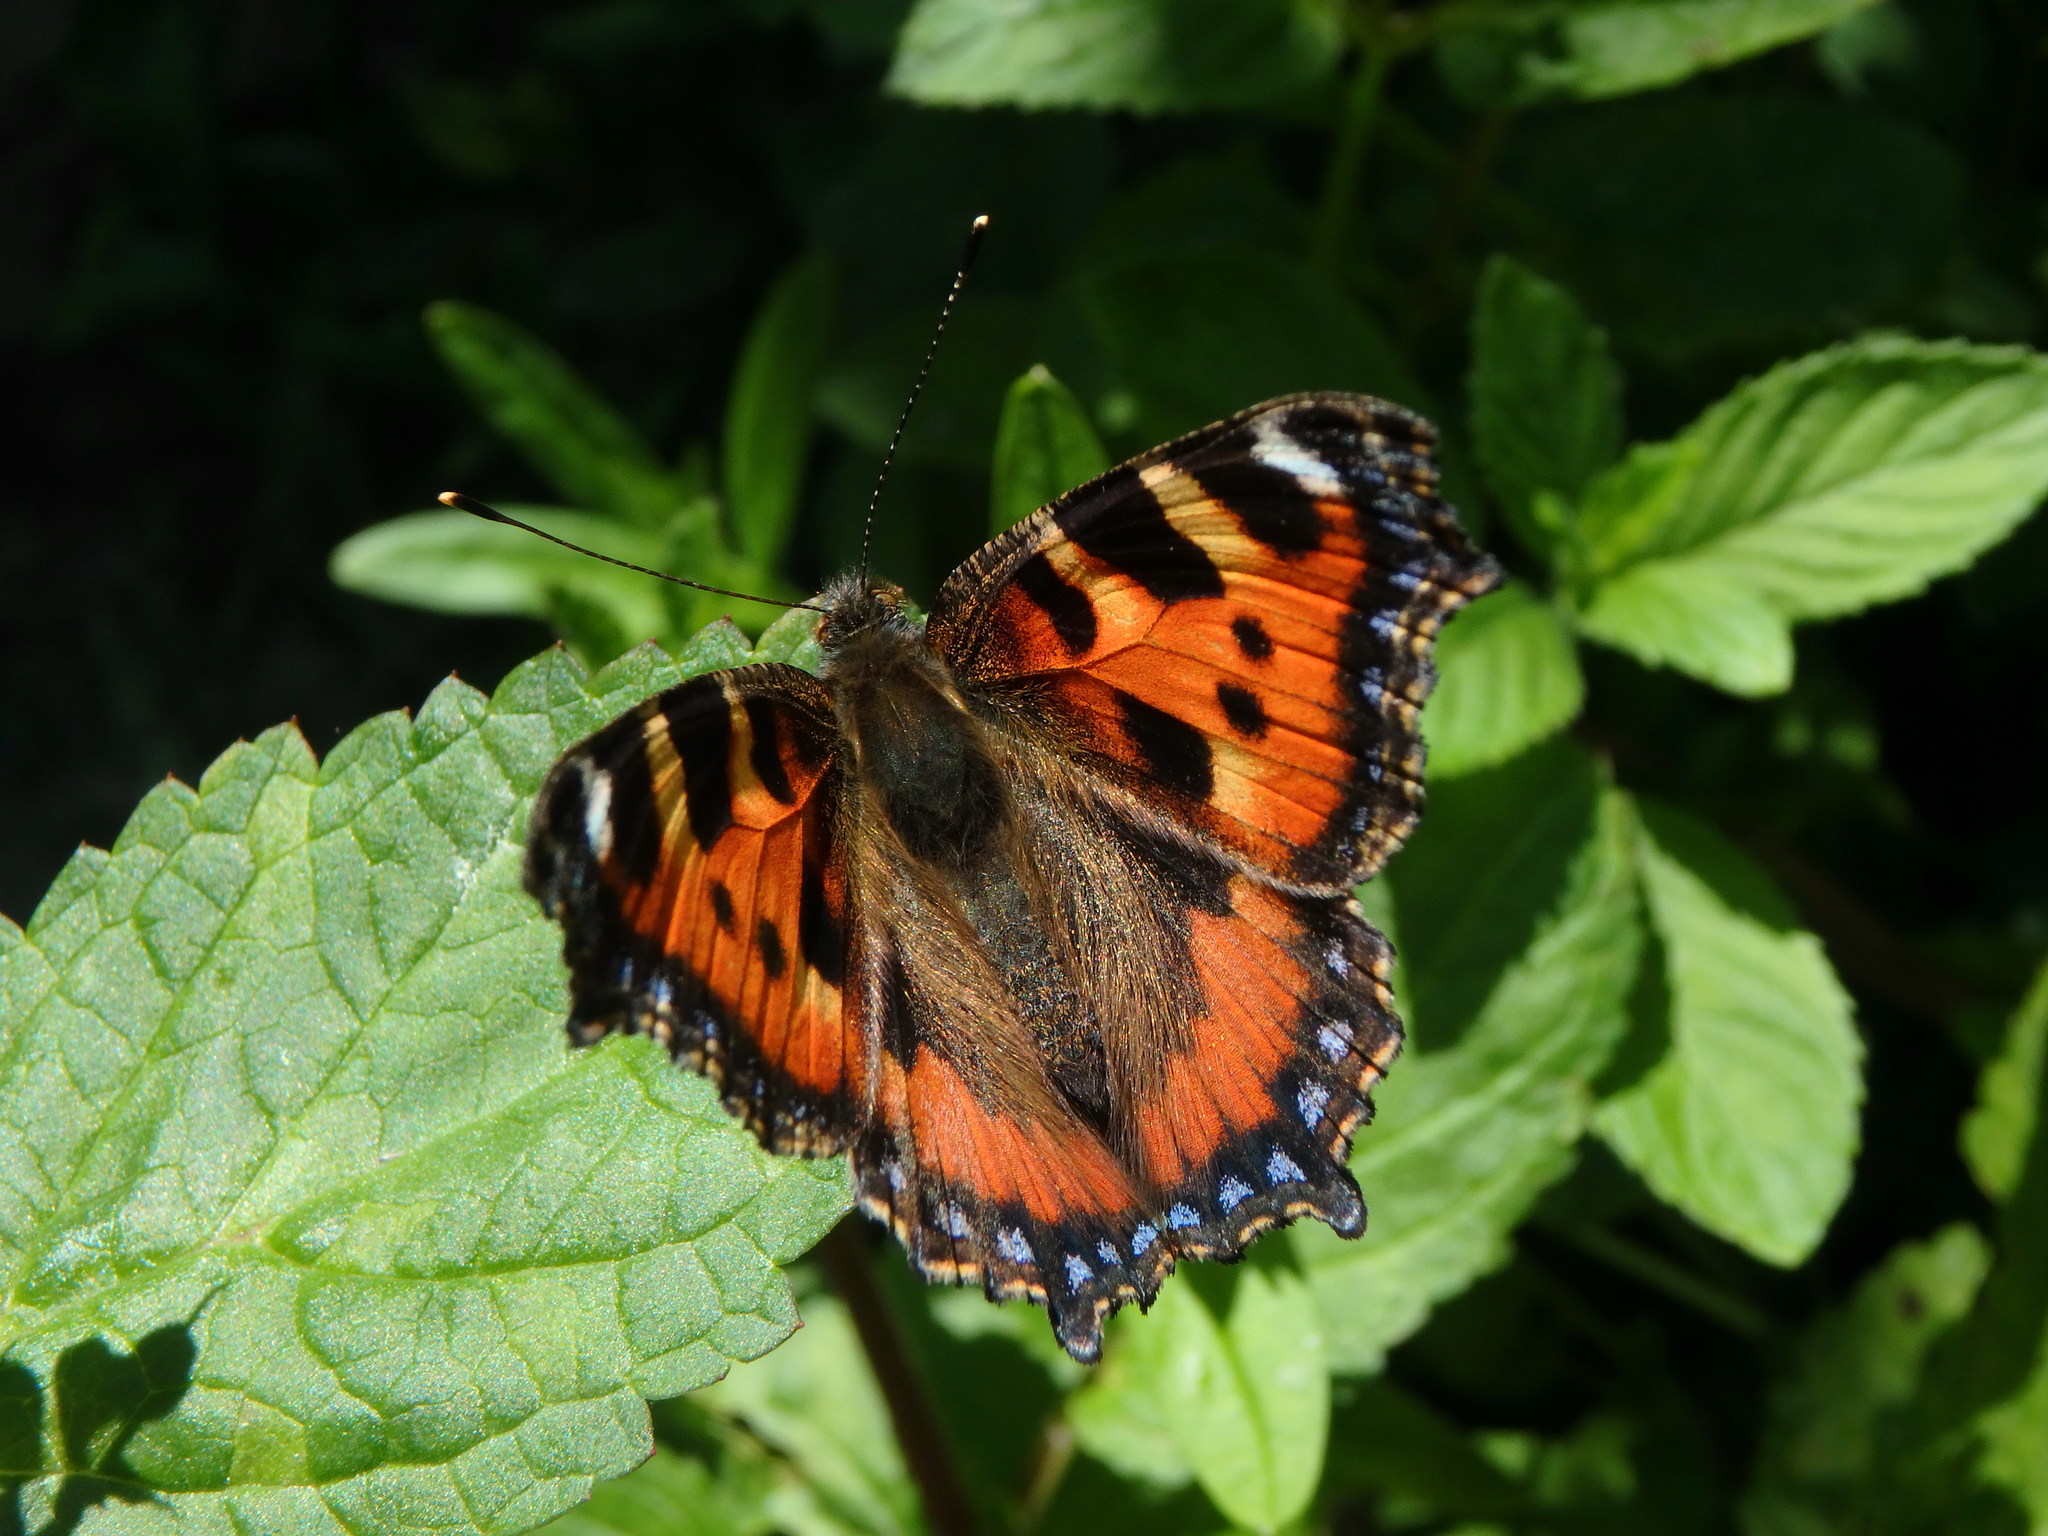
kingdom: Animalia
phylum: Arthropoda
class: Insecta
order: Lepidoptera
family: Nymphalidae
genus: Aglais
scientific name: Aglais urticae
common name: Small tortoiseshell
